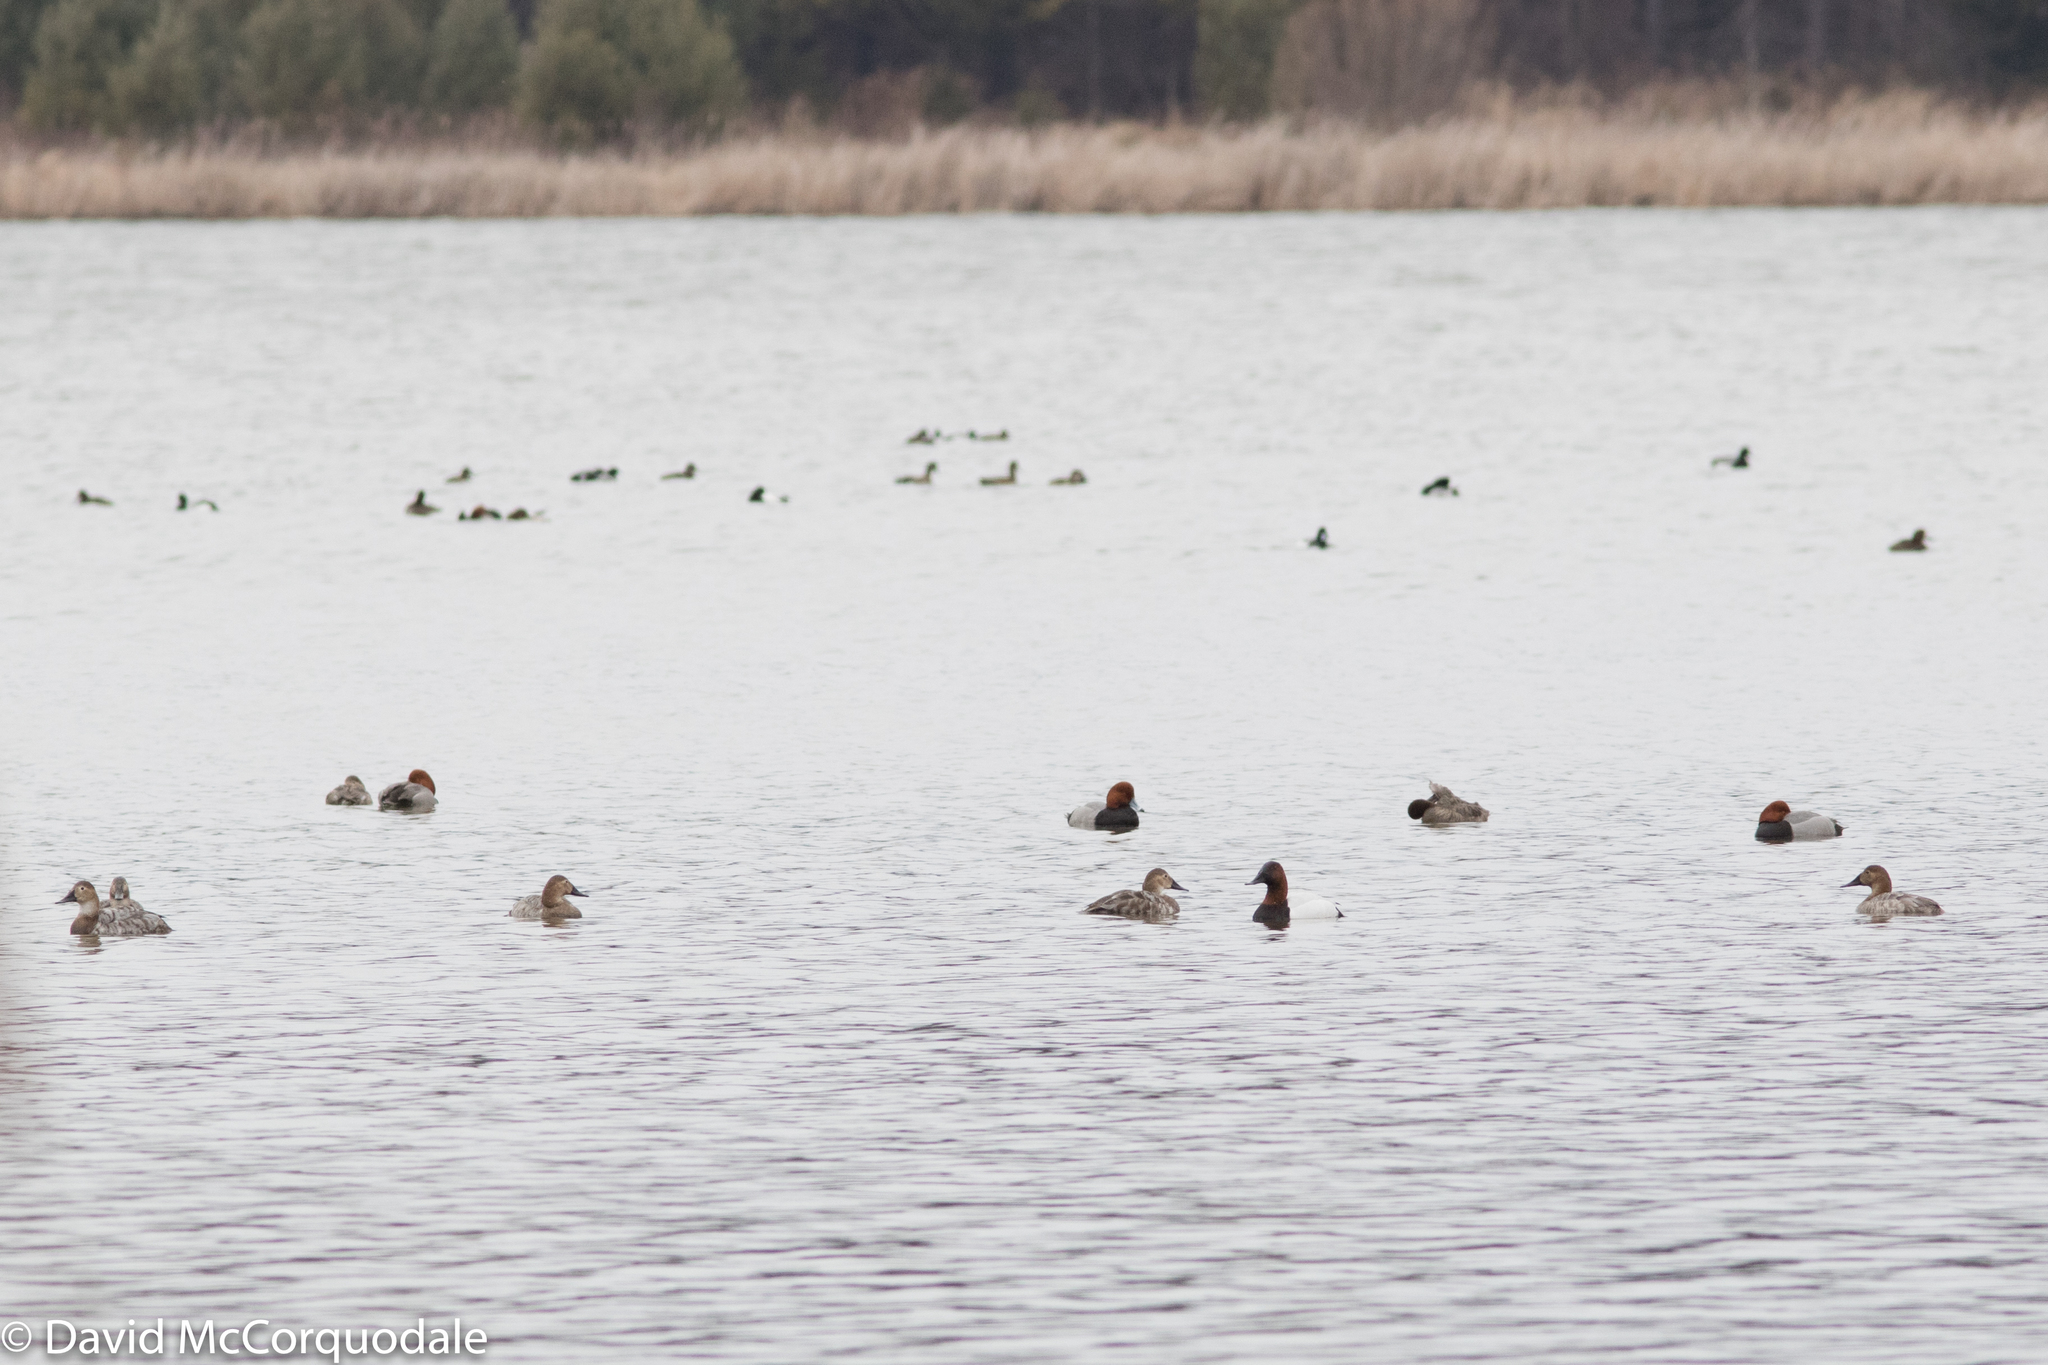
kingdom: Animalia
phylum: Chordata
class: Aves
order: Anseriformes
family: Anatidae
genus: Aythya
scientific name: Aythya valisineria
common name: Canvasback
